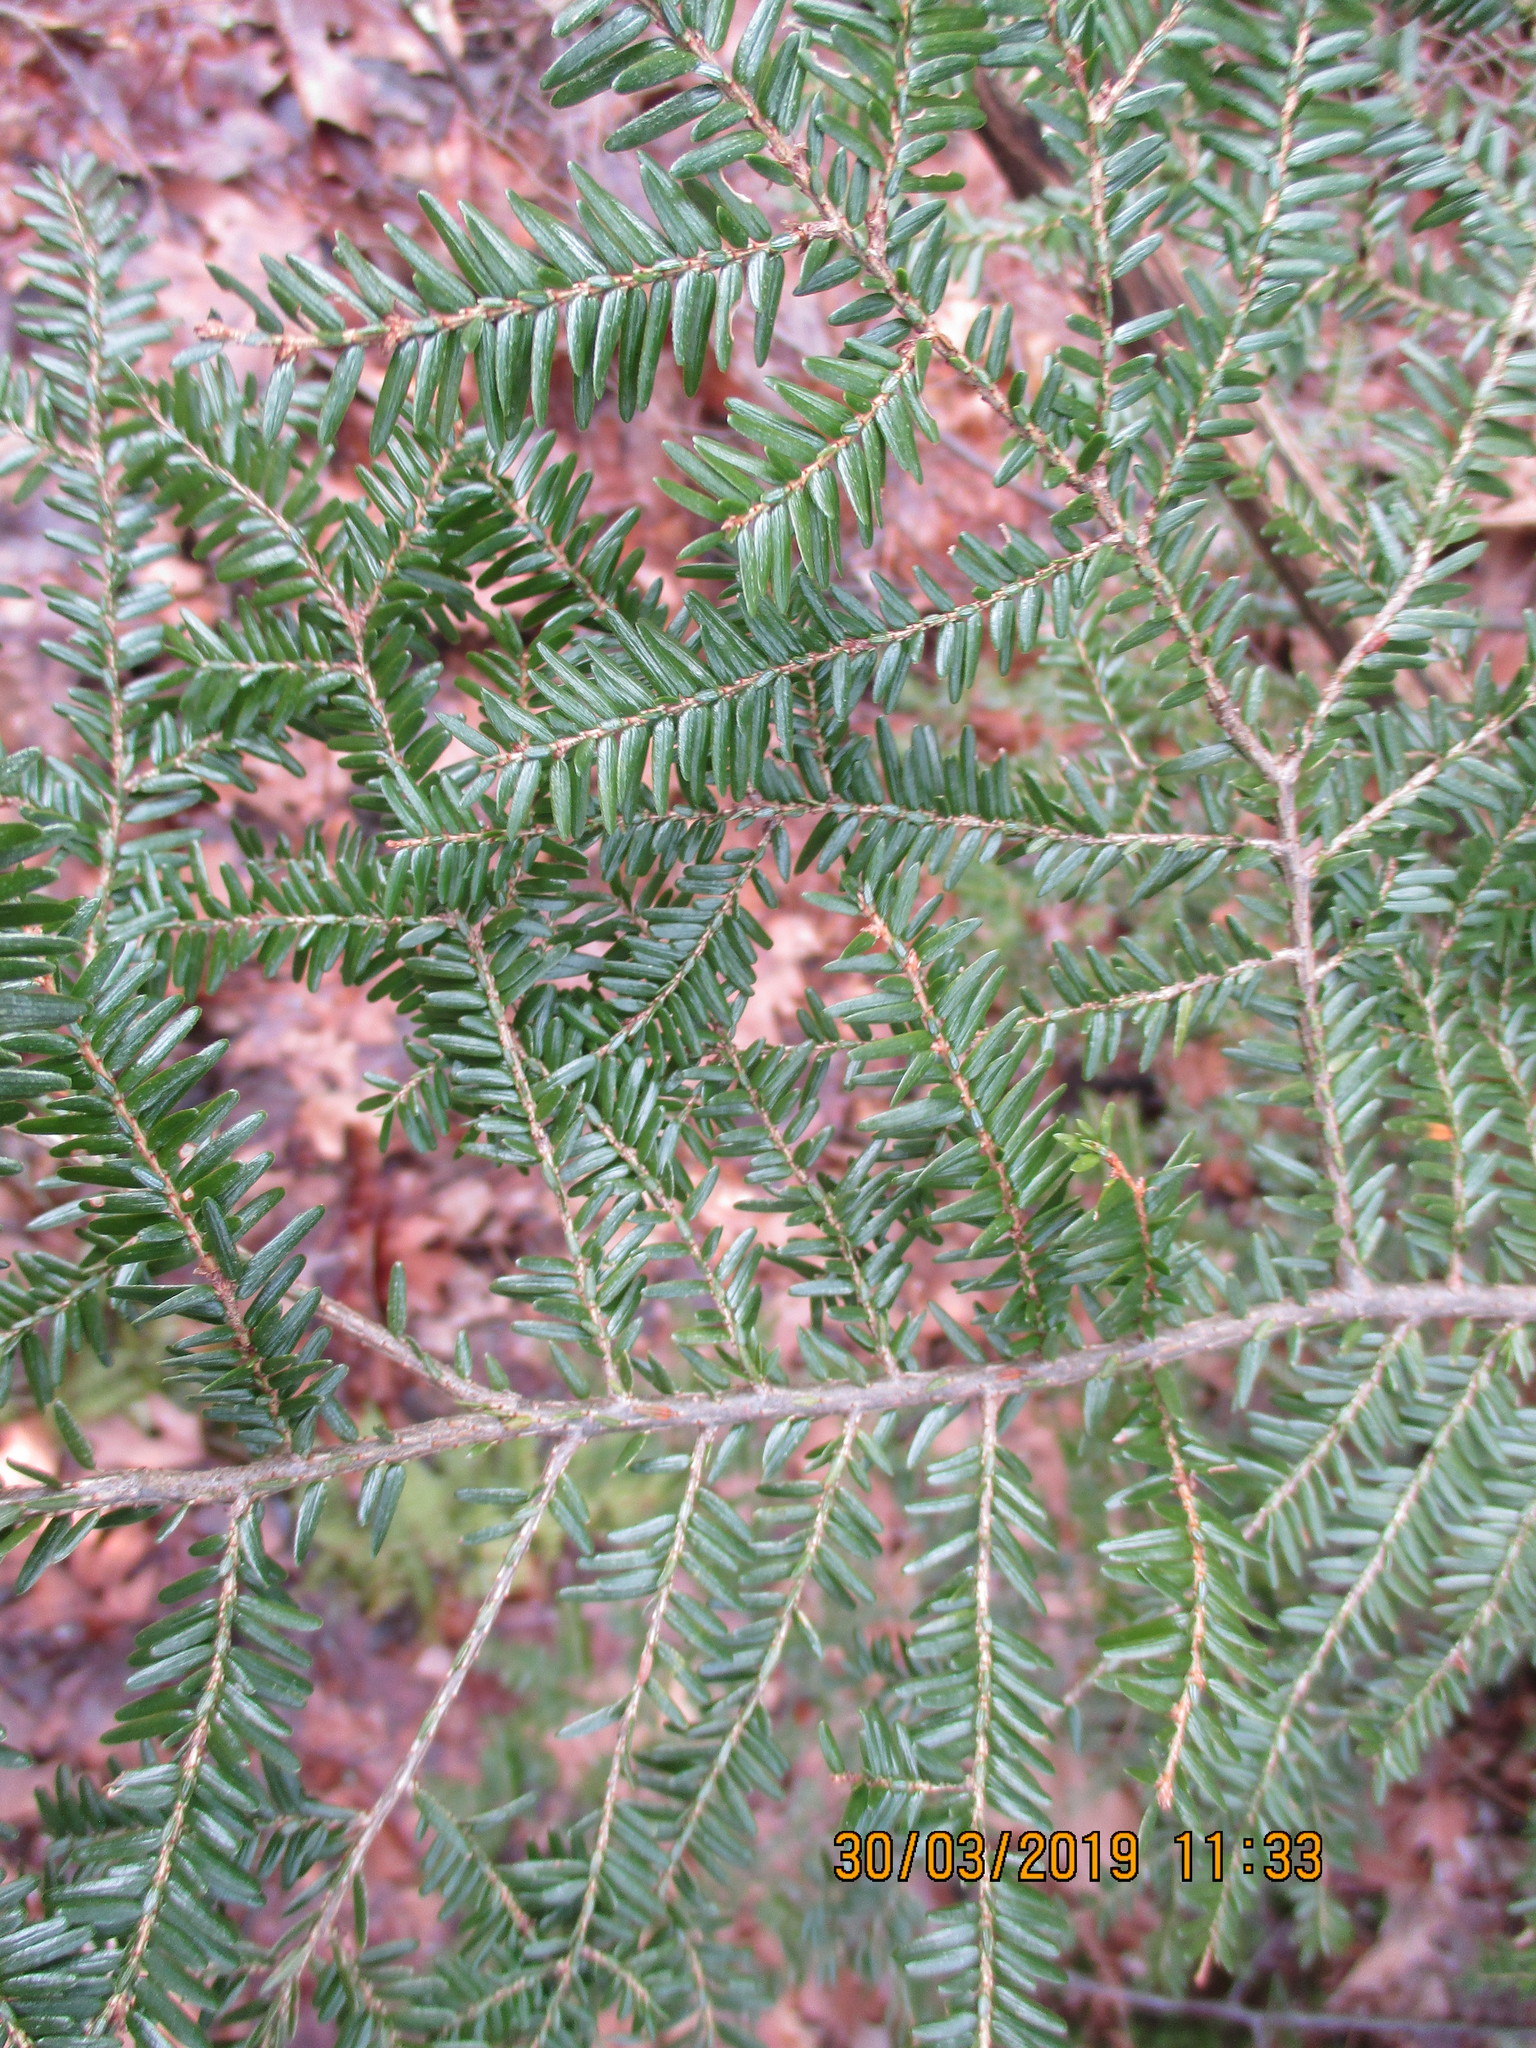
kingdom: Plantae
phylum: Tracheophyta
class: Pinopsida
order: Pinales
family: Pinaceae
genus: Tsuga
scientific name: Tsuga canadensis
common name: Eastern hemlock
